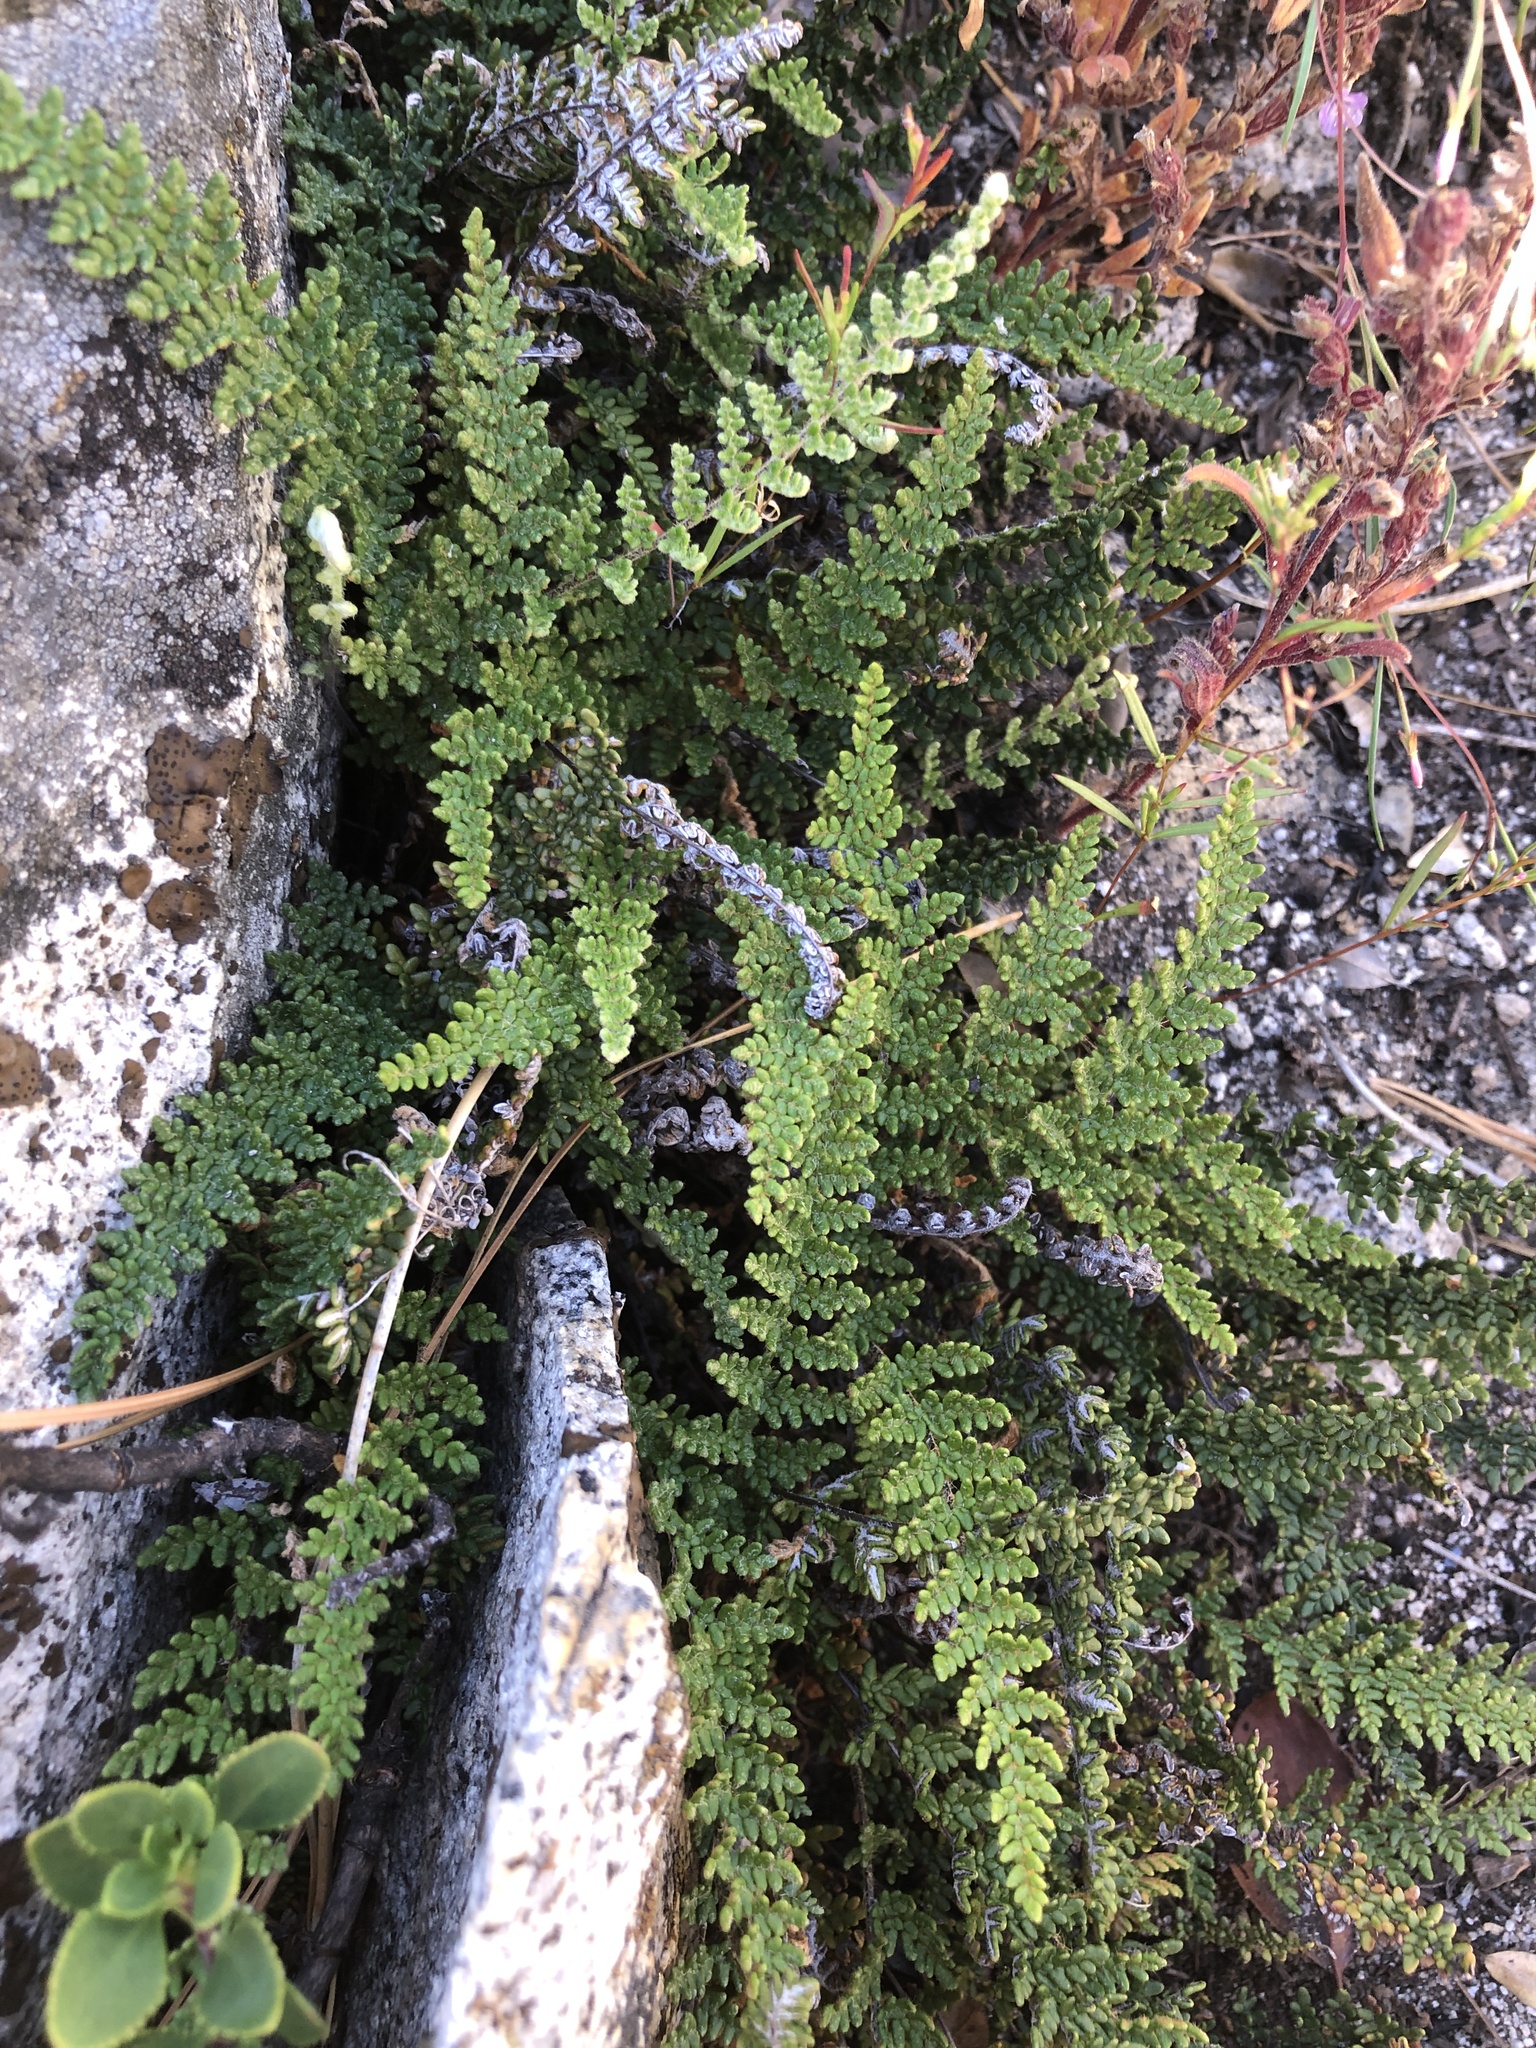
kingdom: Plantae
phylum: Tracheophyta
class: Polypodiopsida
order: Polypodiales
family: Pteridaceae
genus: Myriopteris
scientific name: Myriopteris gracillima
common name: Lace fern
